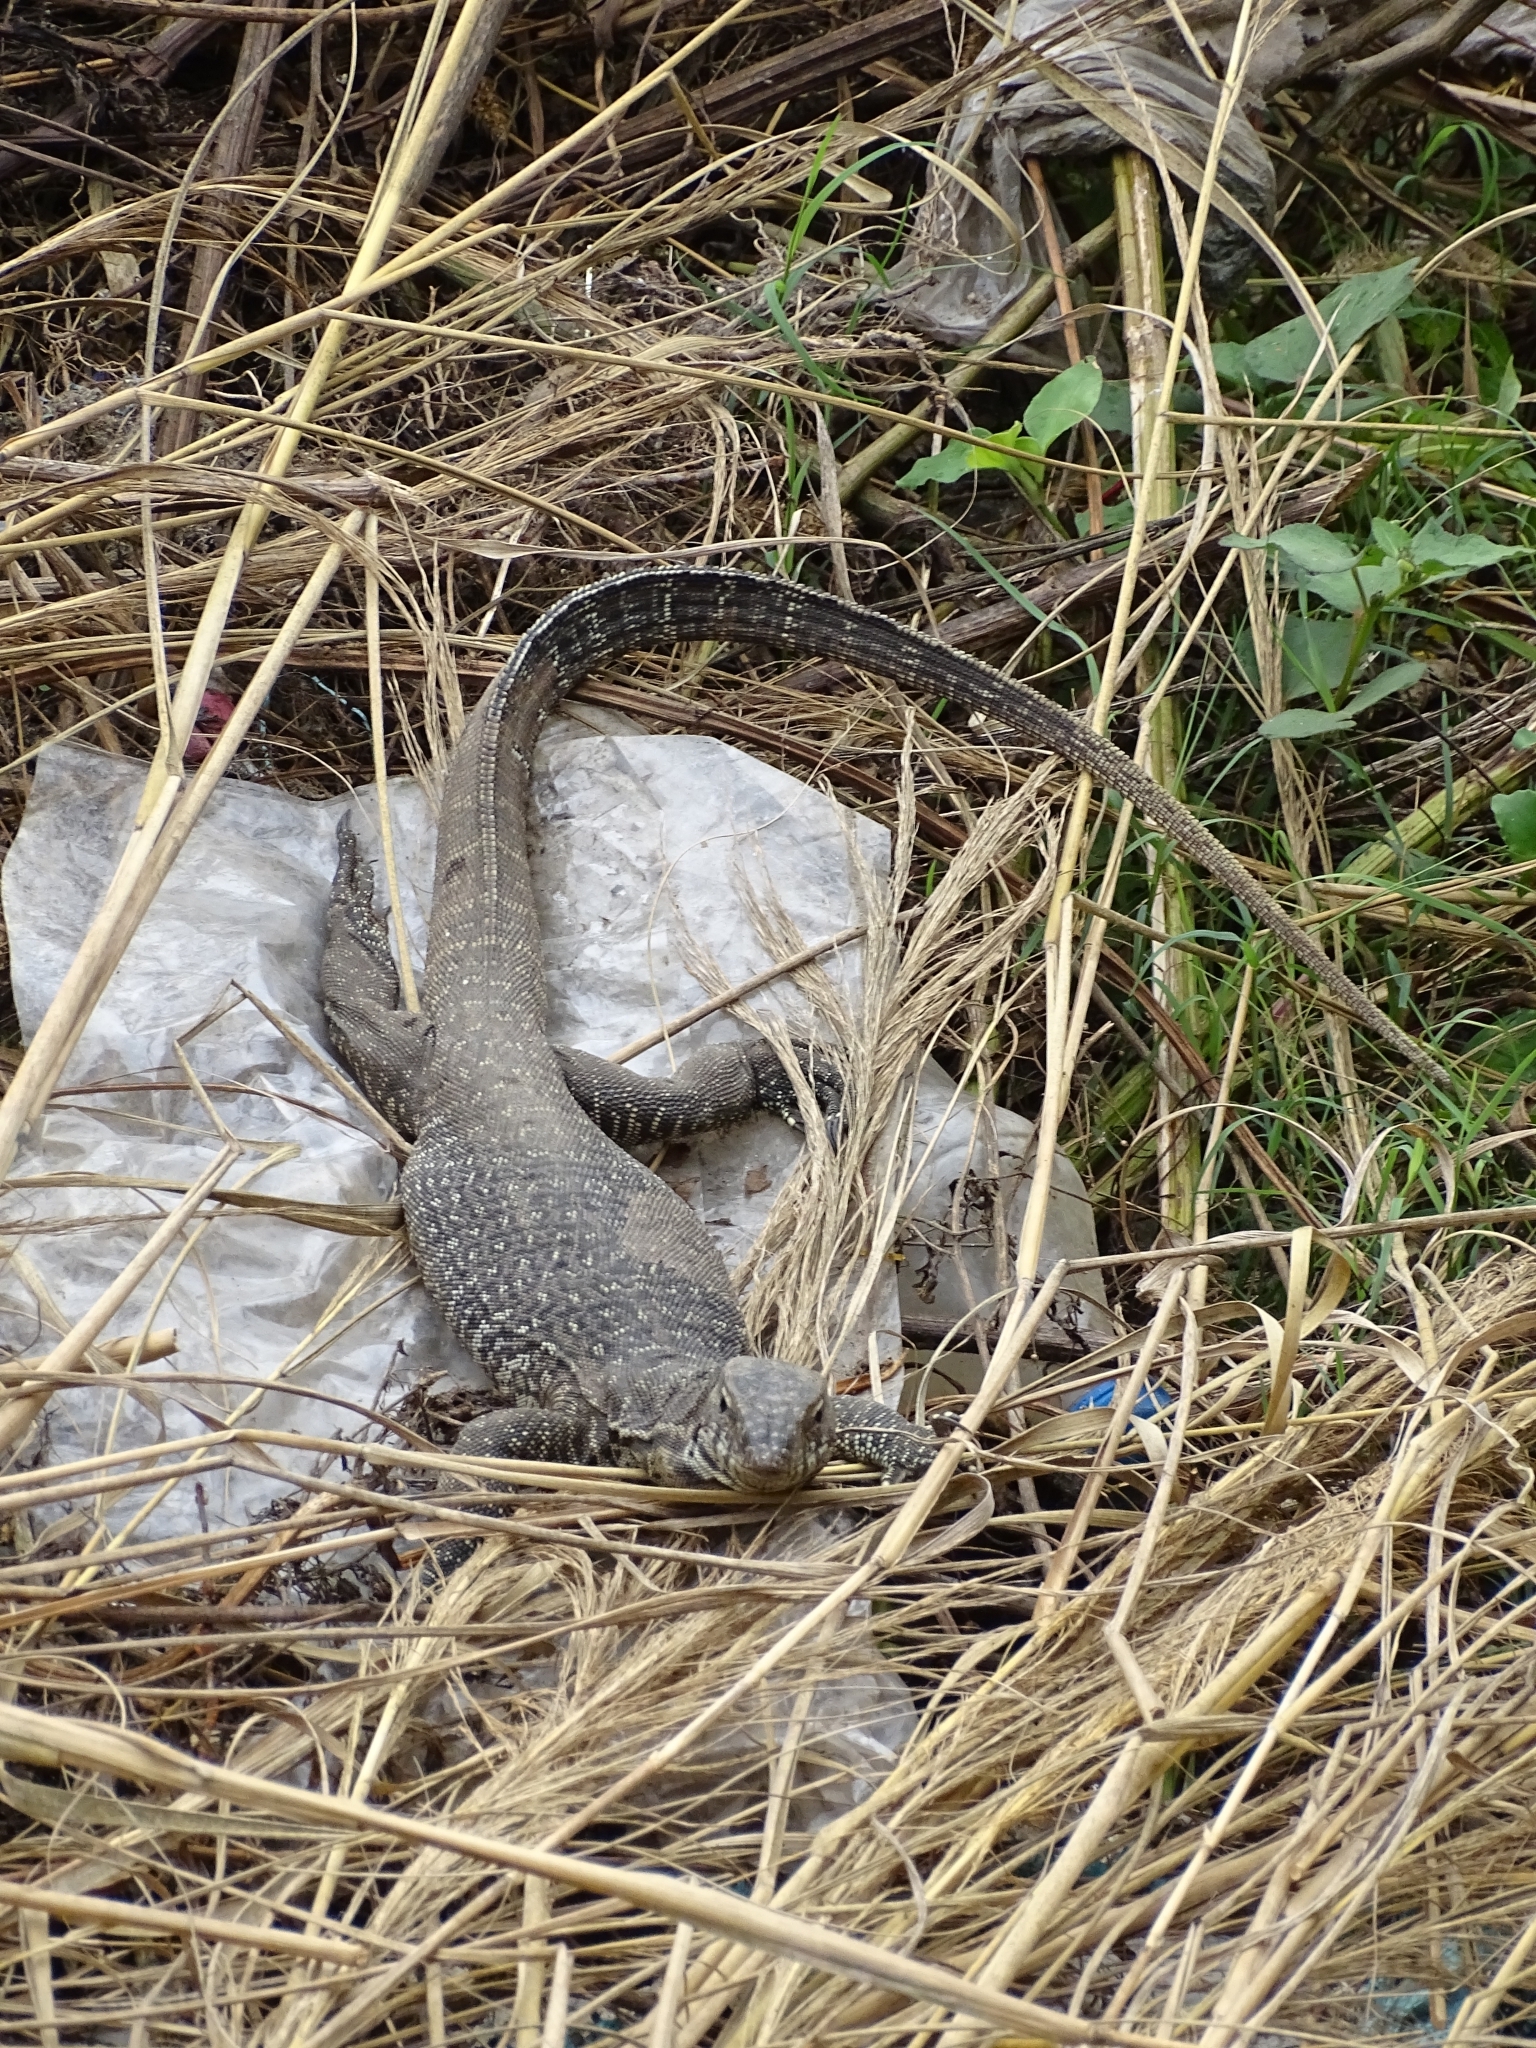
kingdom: Animalia
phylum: Chordata
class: Squamata
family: Varanidae
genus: Varanus
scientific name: Varanus bengalensis
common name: Bengal monitor
